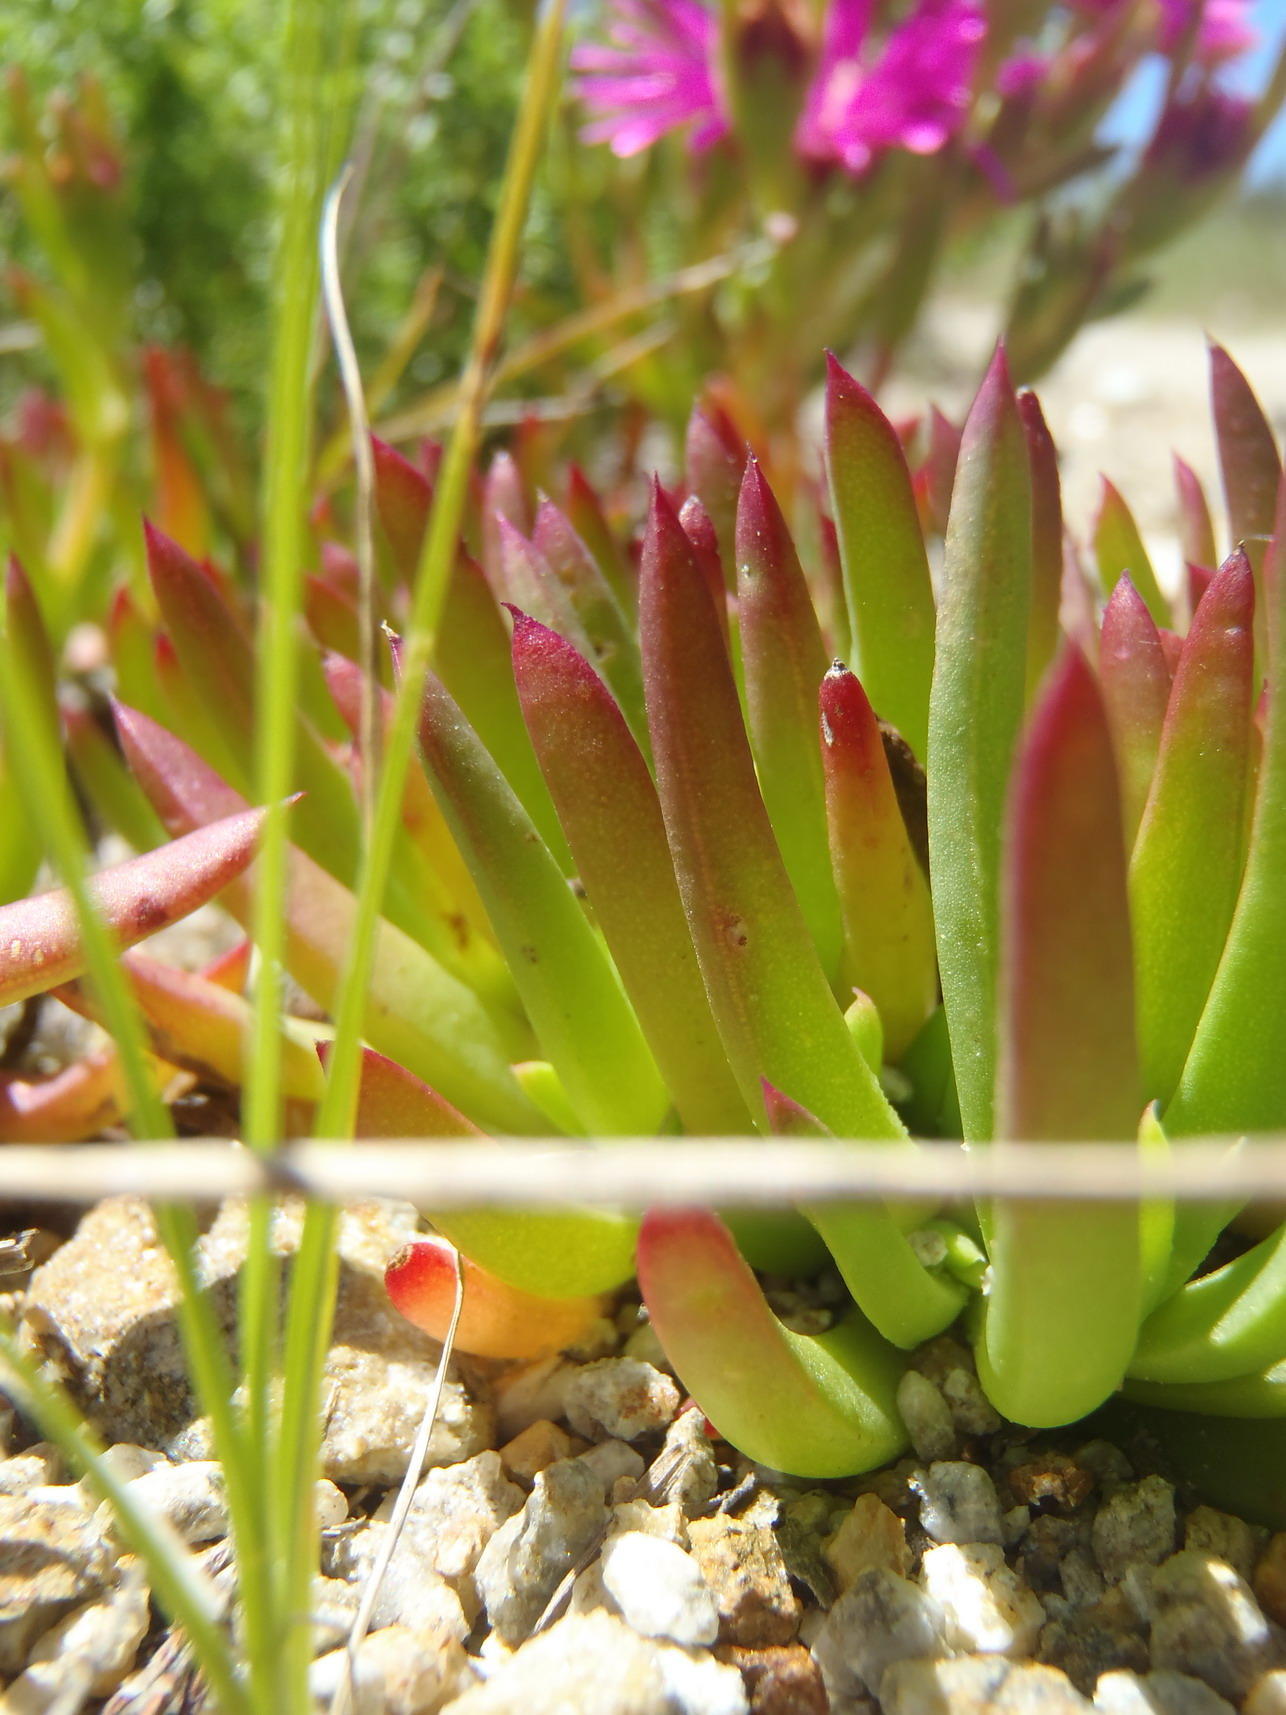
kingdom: Plantae
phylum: Tracheophyta
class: Magnoliopsida
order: Caryophyllales
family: Aizoaceae
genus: Lampranthus
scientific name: Lampranthus spectabilis
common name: Trailing iceplant
